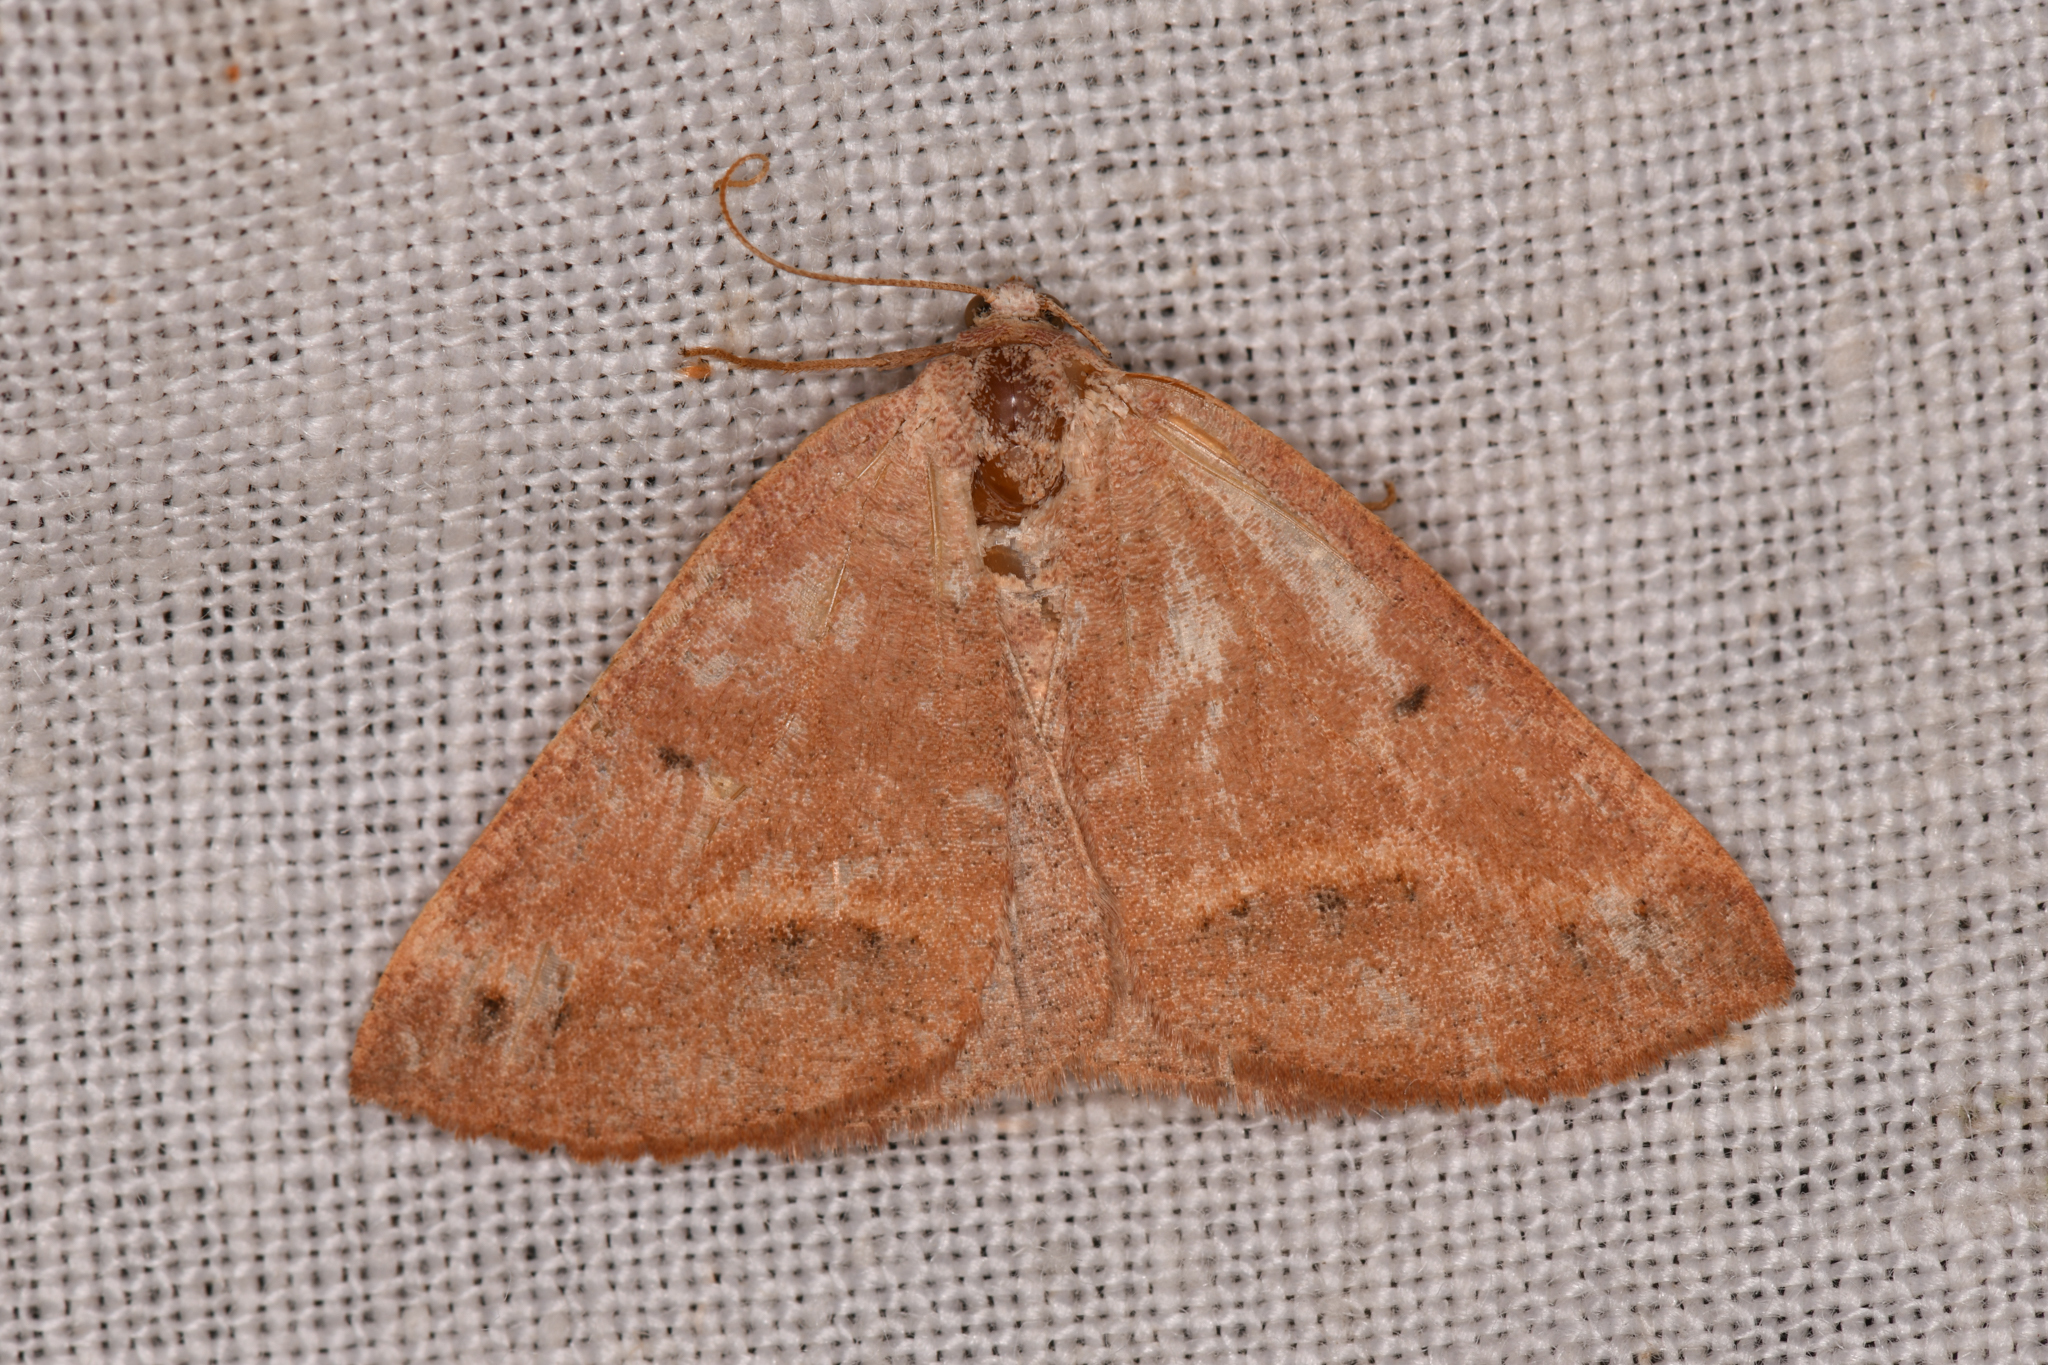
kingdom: Animalia
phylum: Arthropoda
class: Insecta
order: Lepidoptera
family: Geometridae
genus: Drepanulatrix
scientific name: Drepanulatrix unicalcararia
